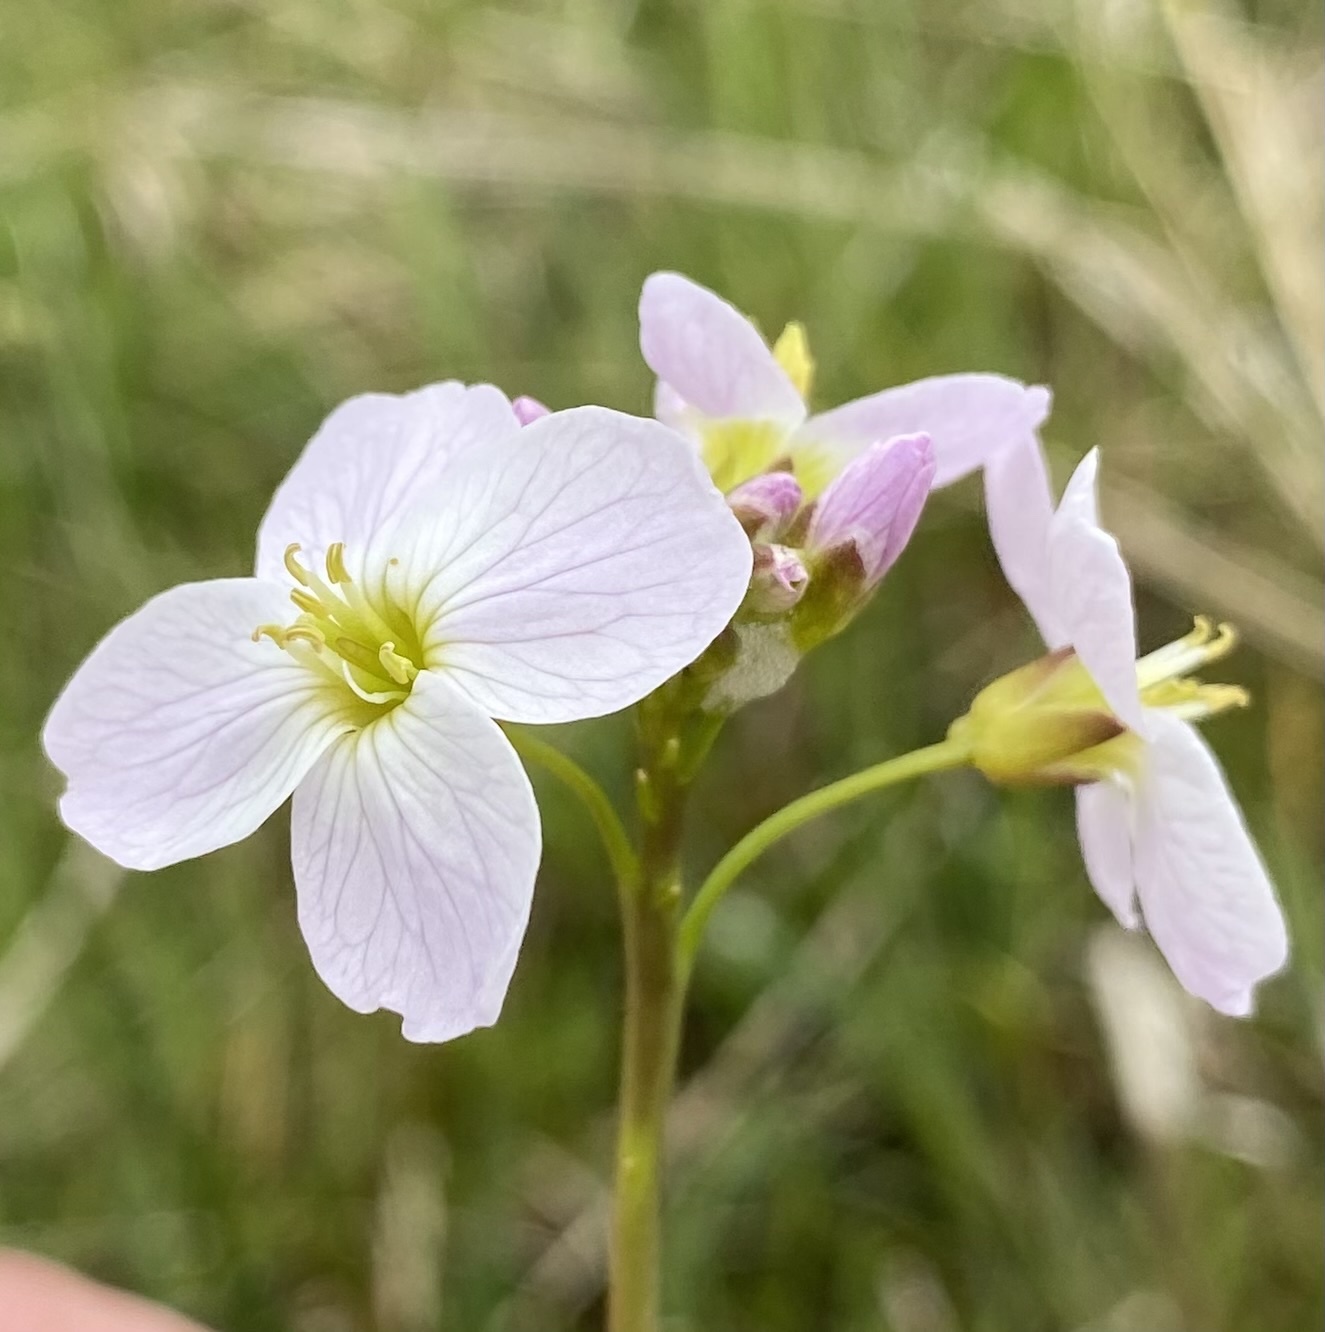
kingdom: Plantae
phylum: Tracheophyta
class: Magnoliopsida
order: Brassicales
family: Brassicaceae
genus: Cardamine
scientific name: Cardamine pratensis
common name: Cuckoo flower
